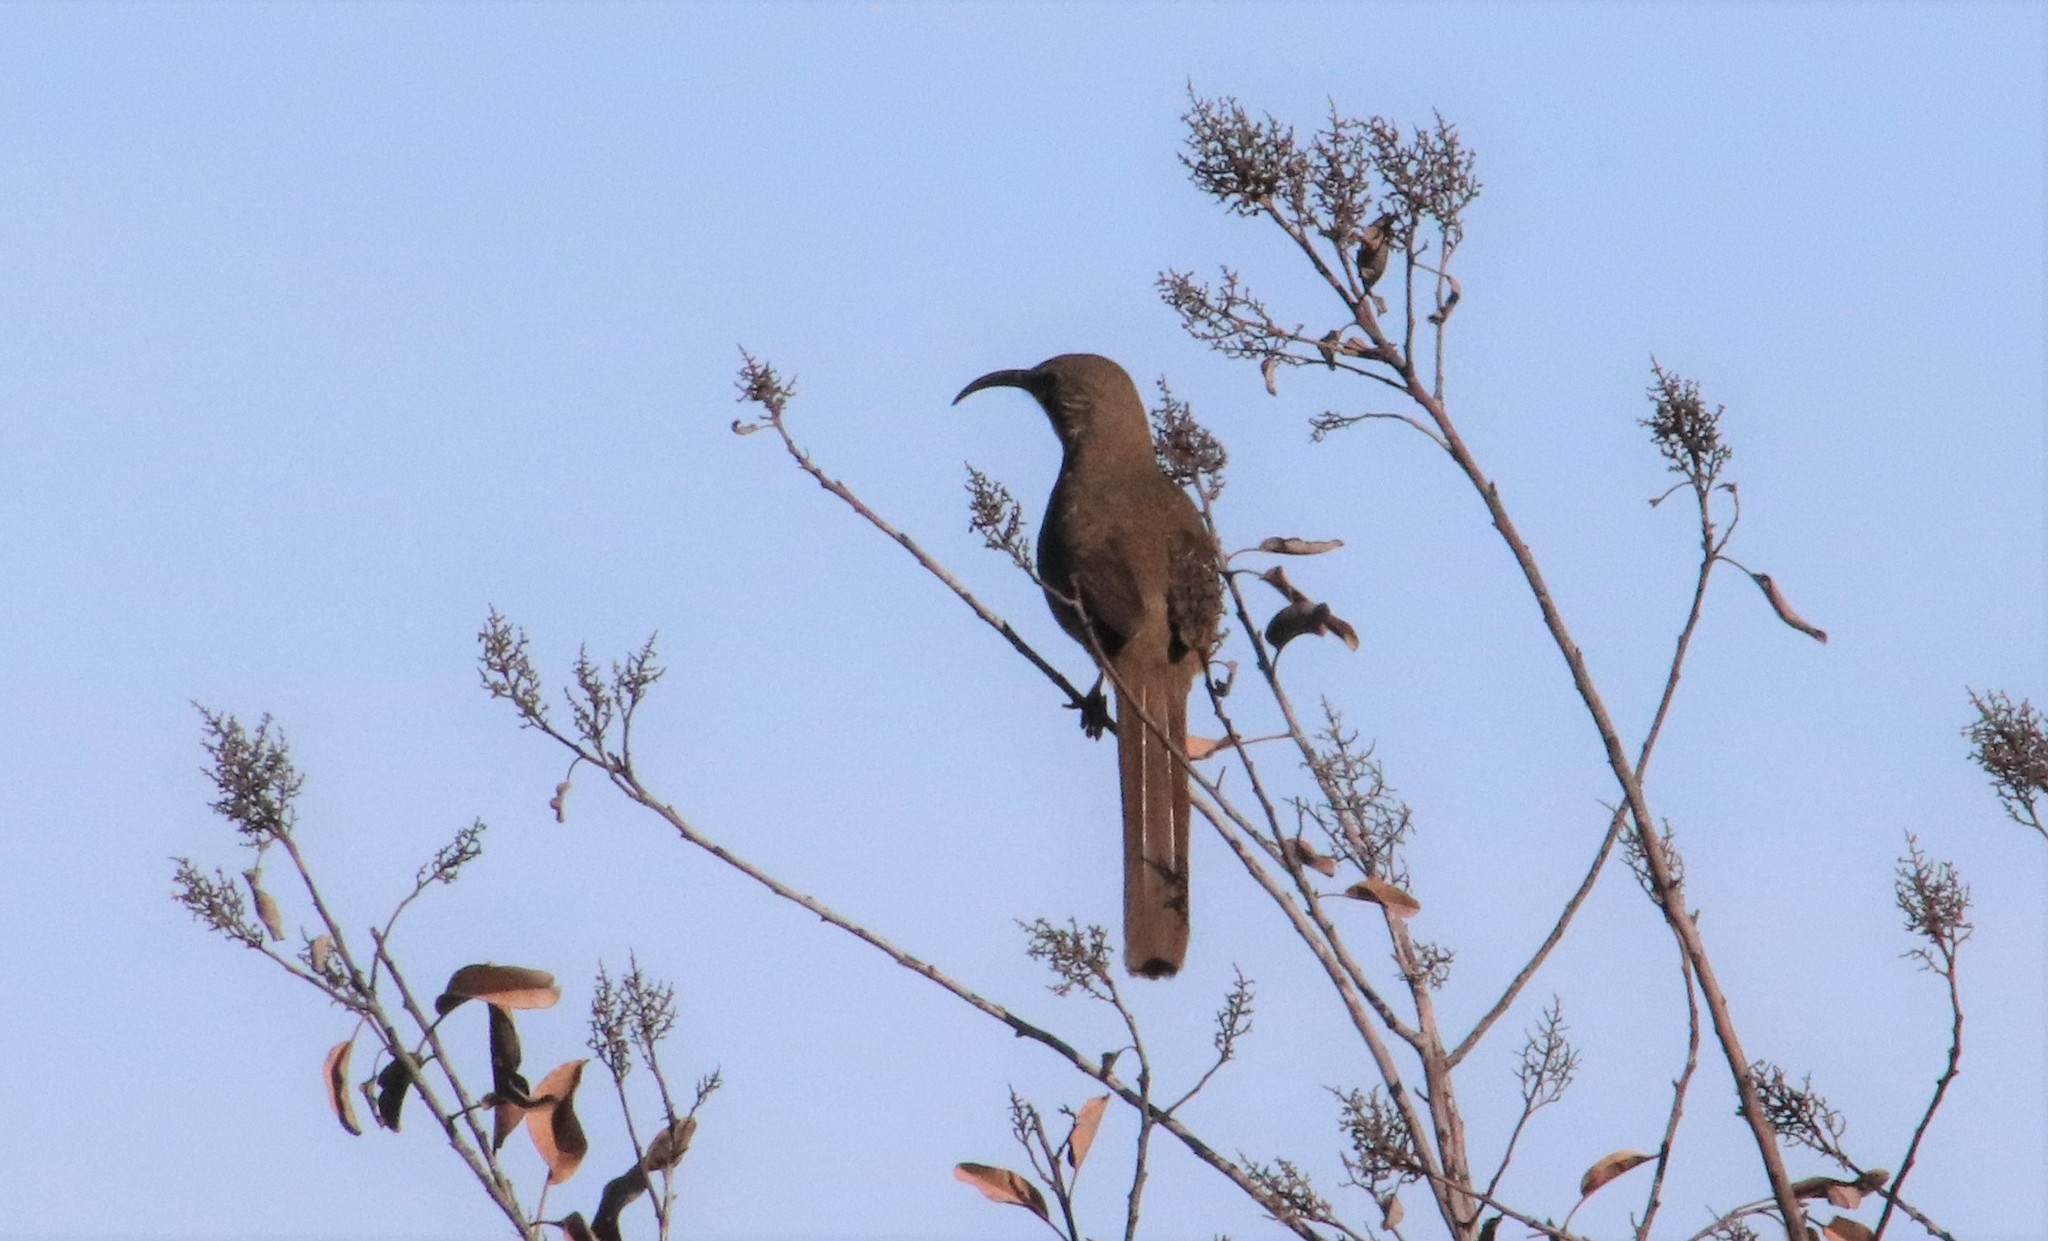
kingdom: Animalia
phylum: Chordata
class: Aves
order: Passeriformes
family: Mimidae
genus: Toxostoma
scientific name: Toxostoma redivivum
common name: California thrasher
